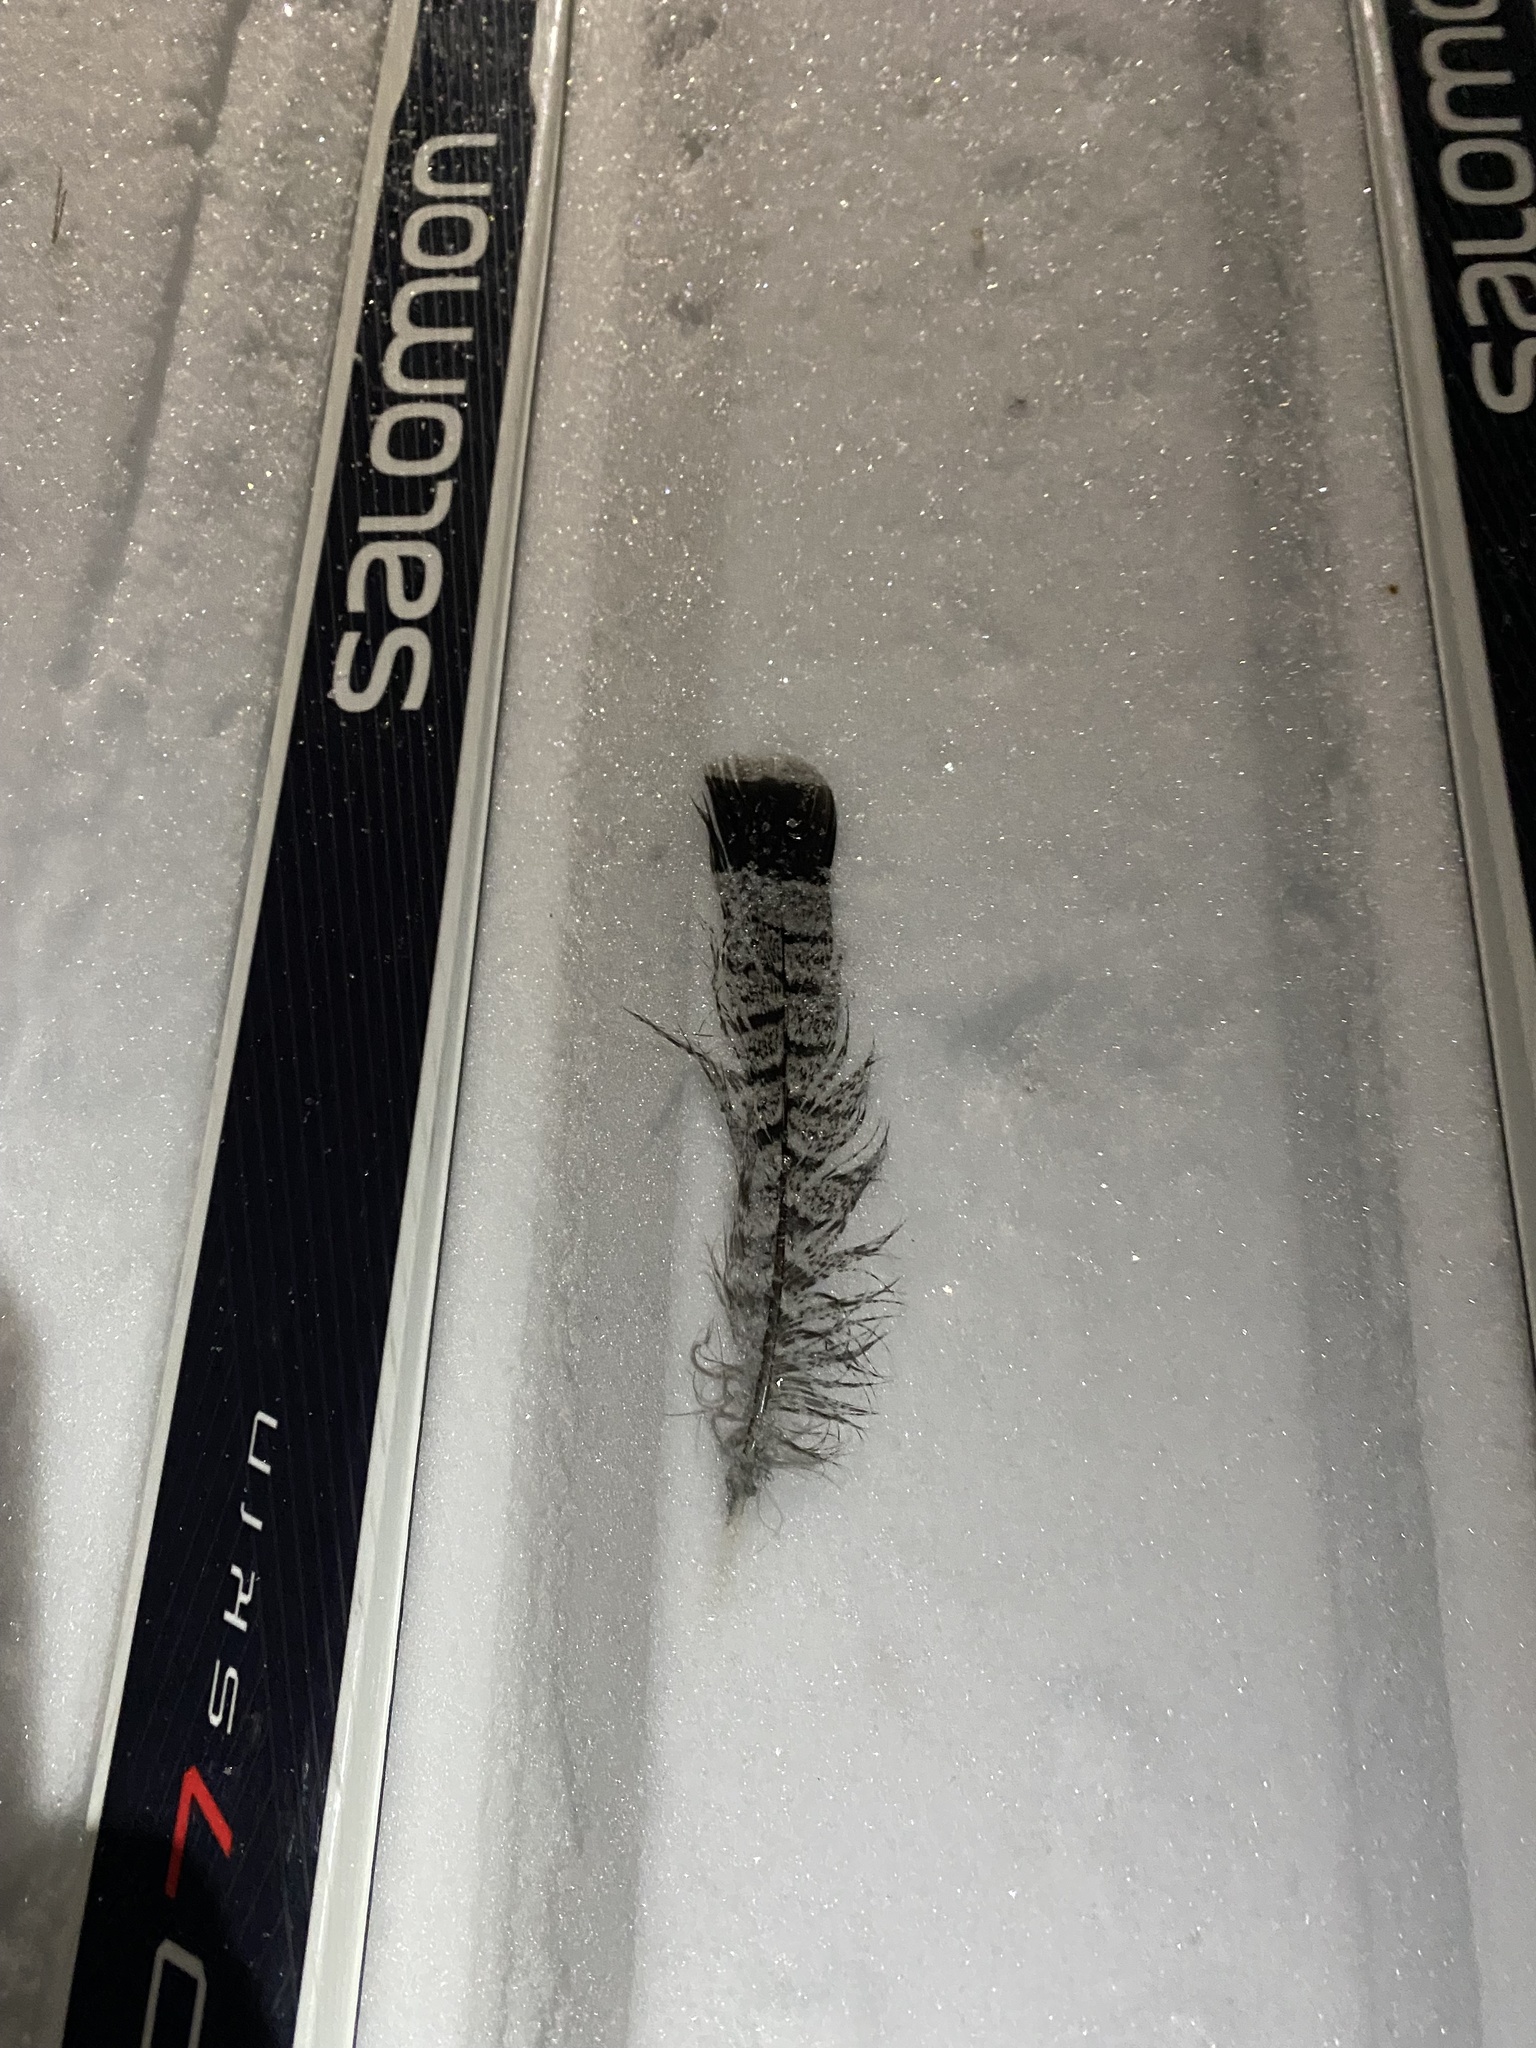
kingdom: Animalia
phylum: Chordata
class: Aves
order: Galliformes
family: Phasianidae
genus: Bonasa
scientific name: Bonasa umbellus
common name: Ruffed grouse
